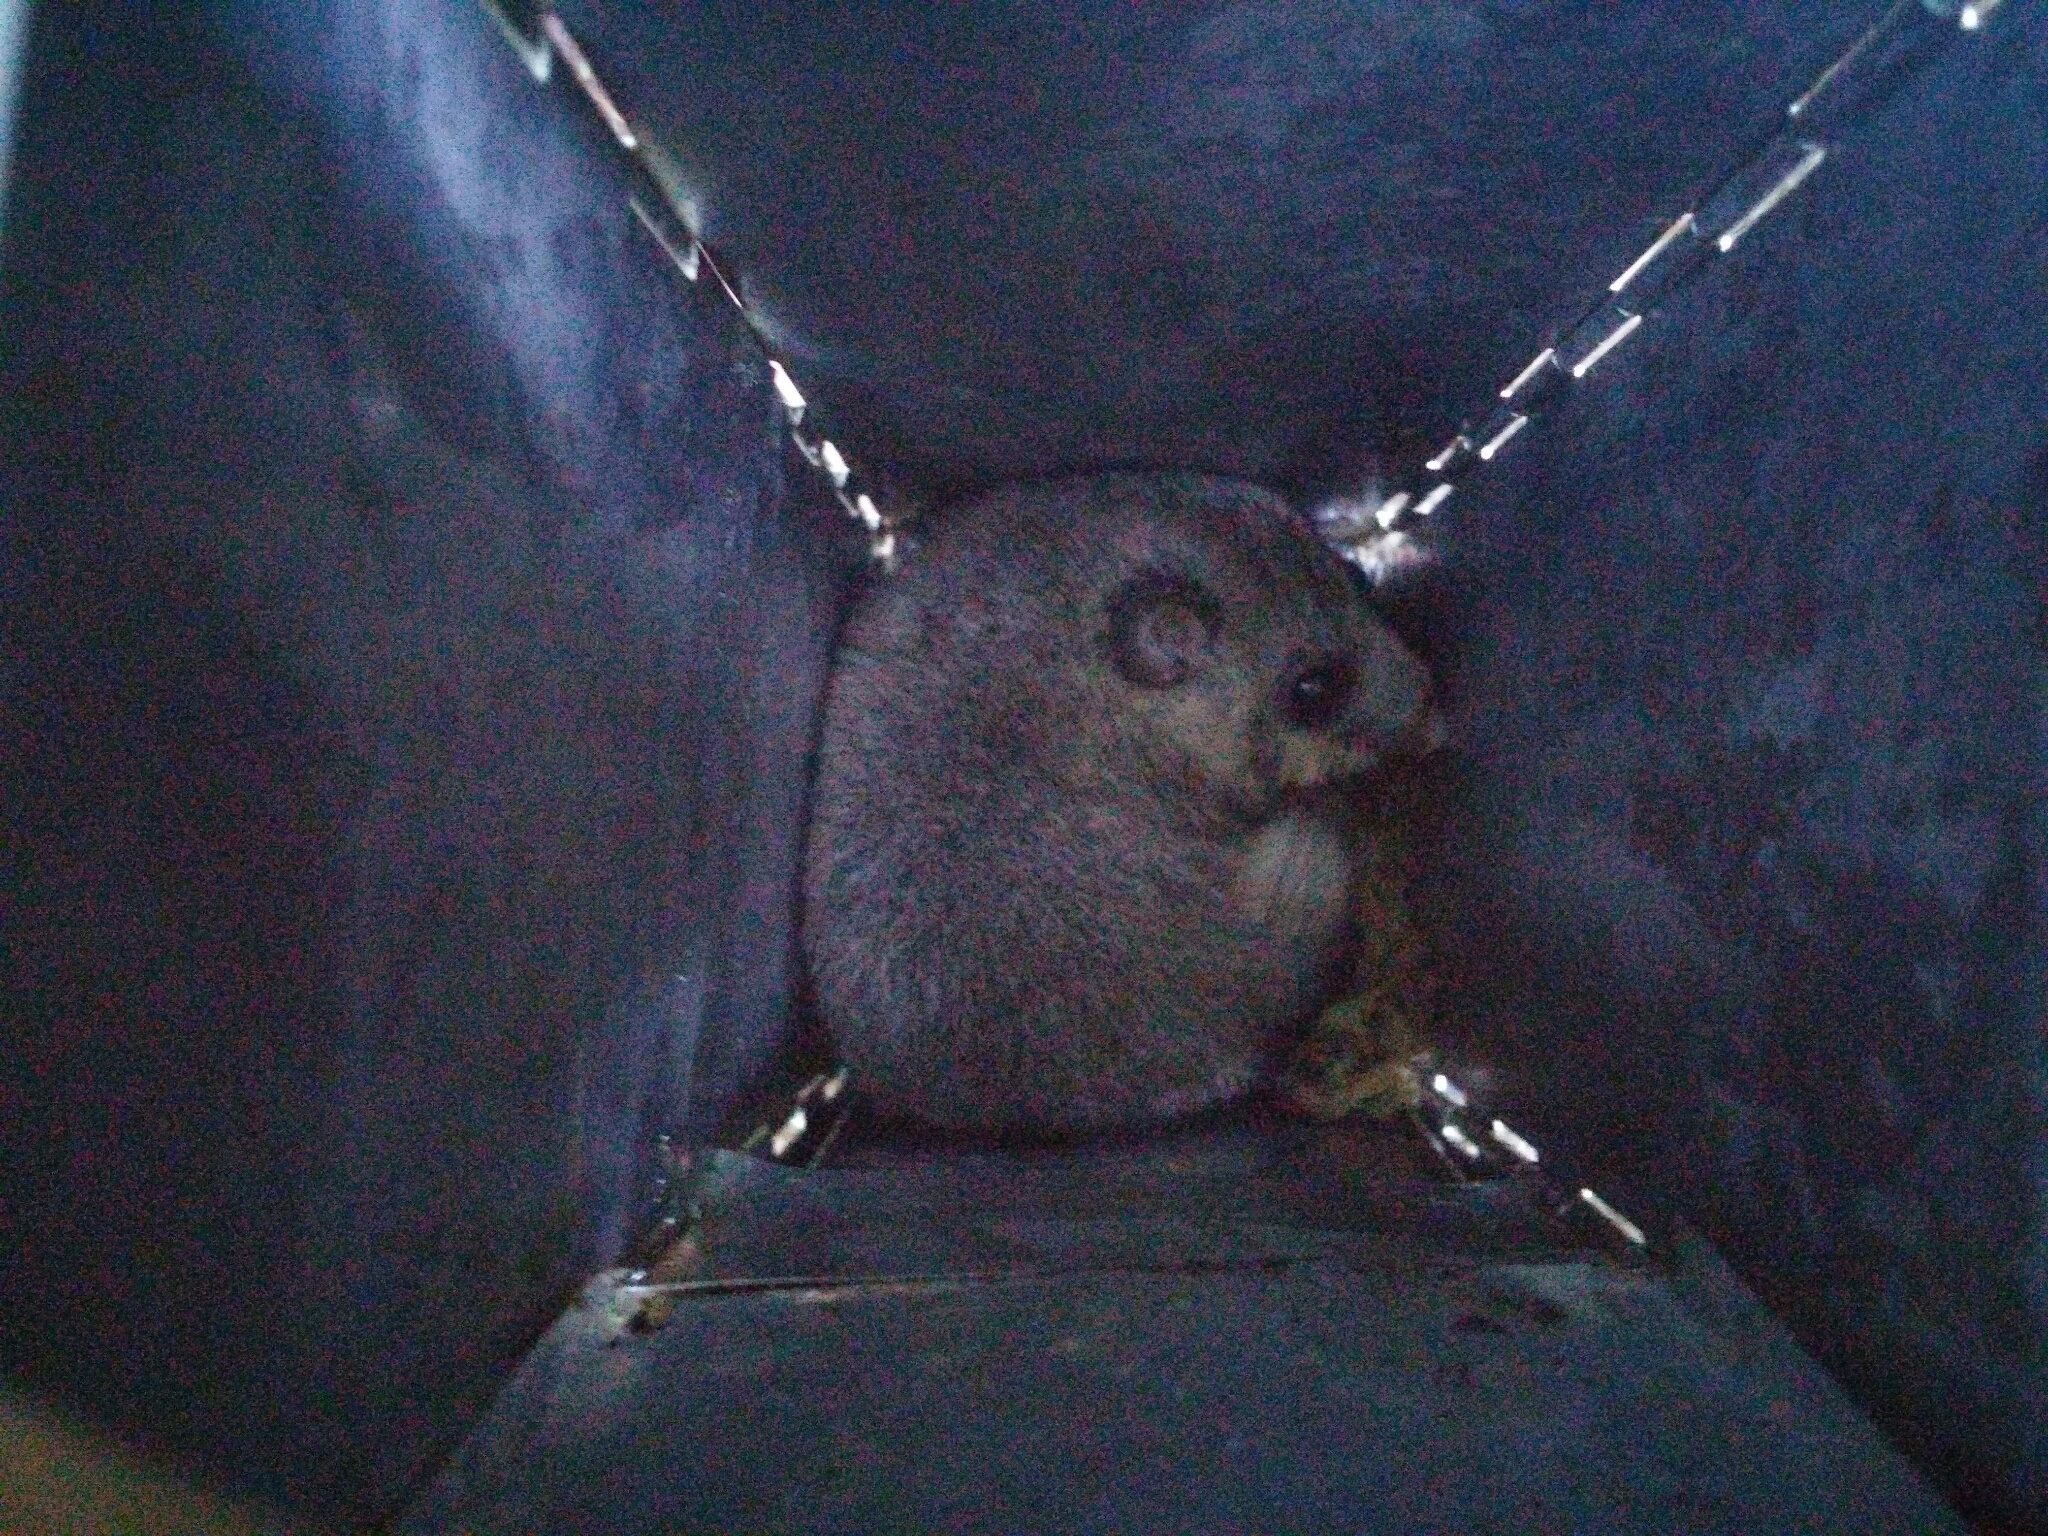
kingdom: Animalia
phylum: Chordata
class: Mammalia
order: Rodentia
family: Gliridae
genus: Glis
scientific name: Glis glis
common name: Fat dormouse
